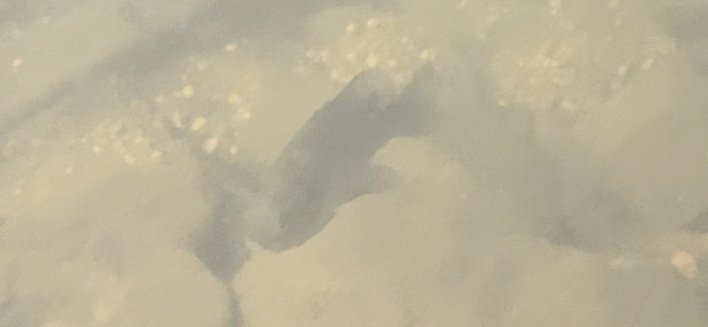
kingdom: Animalia
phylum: Chordata
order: Perciformes
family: Centrarchidae
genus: Lepomis
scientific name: Lepomis macrochirus
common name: Bluegill
